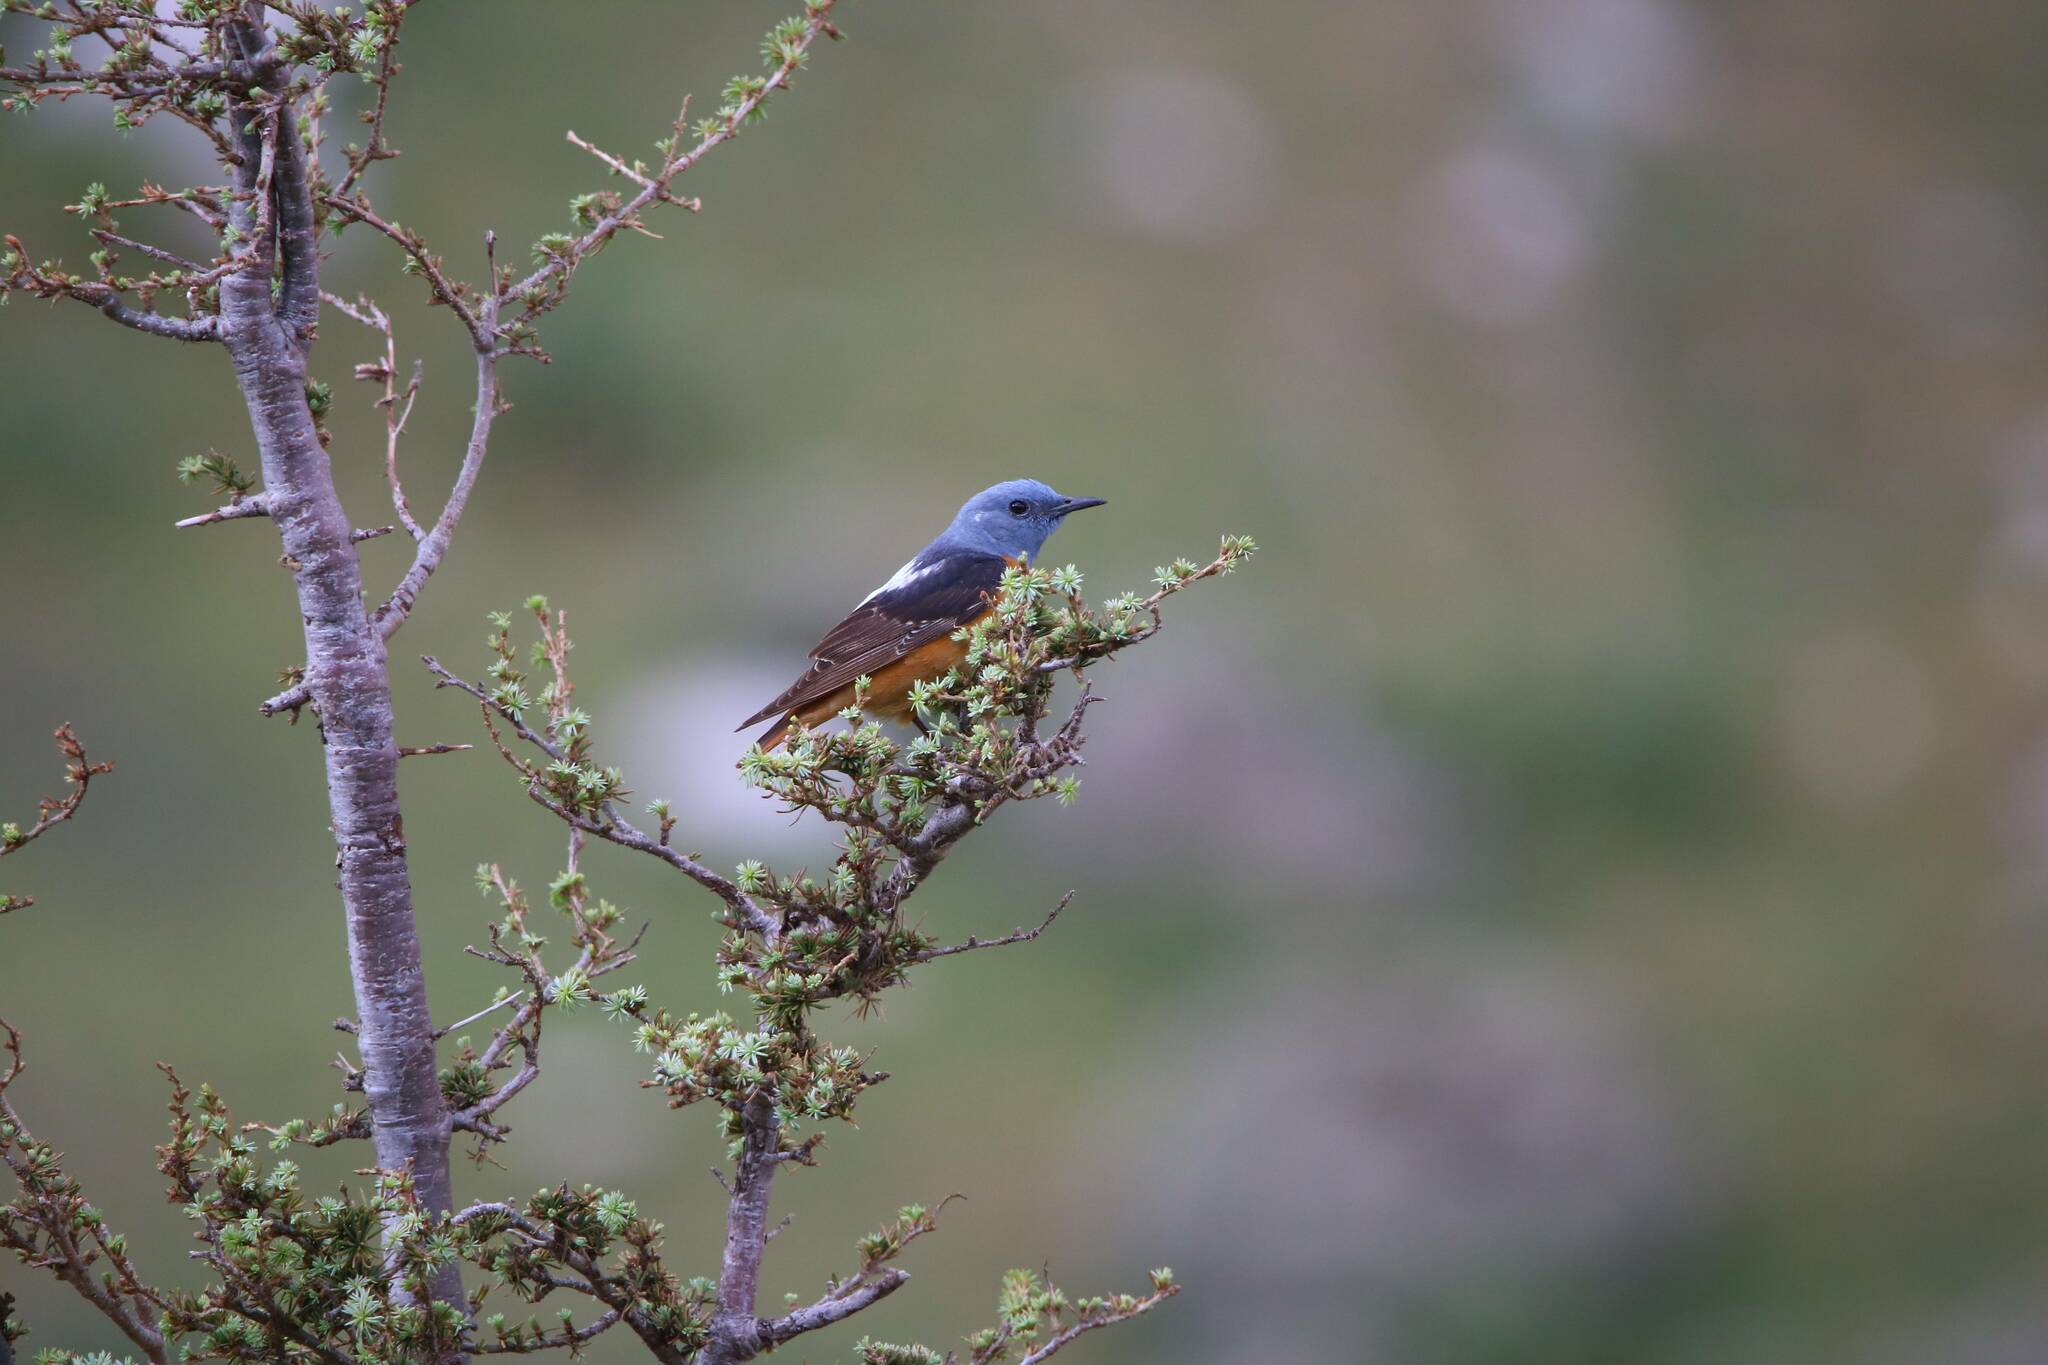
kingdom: Animalia
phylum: Chordata
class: Aves
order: Passeriformes
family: Muscicapidae
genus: Monticola
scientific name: Monticola saxatilis
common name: Rufous-tailed rock thrush
